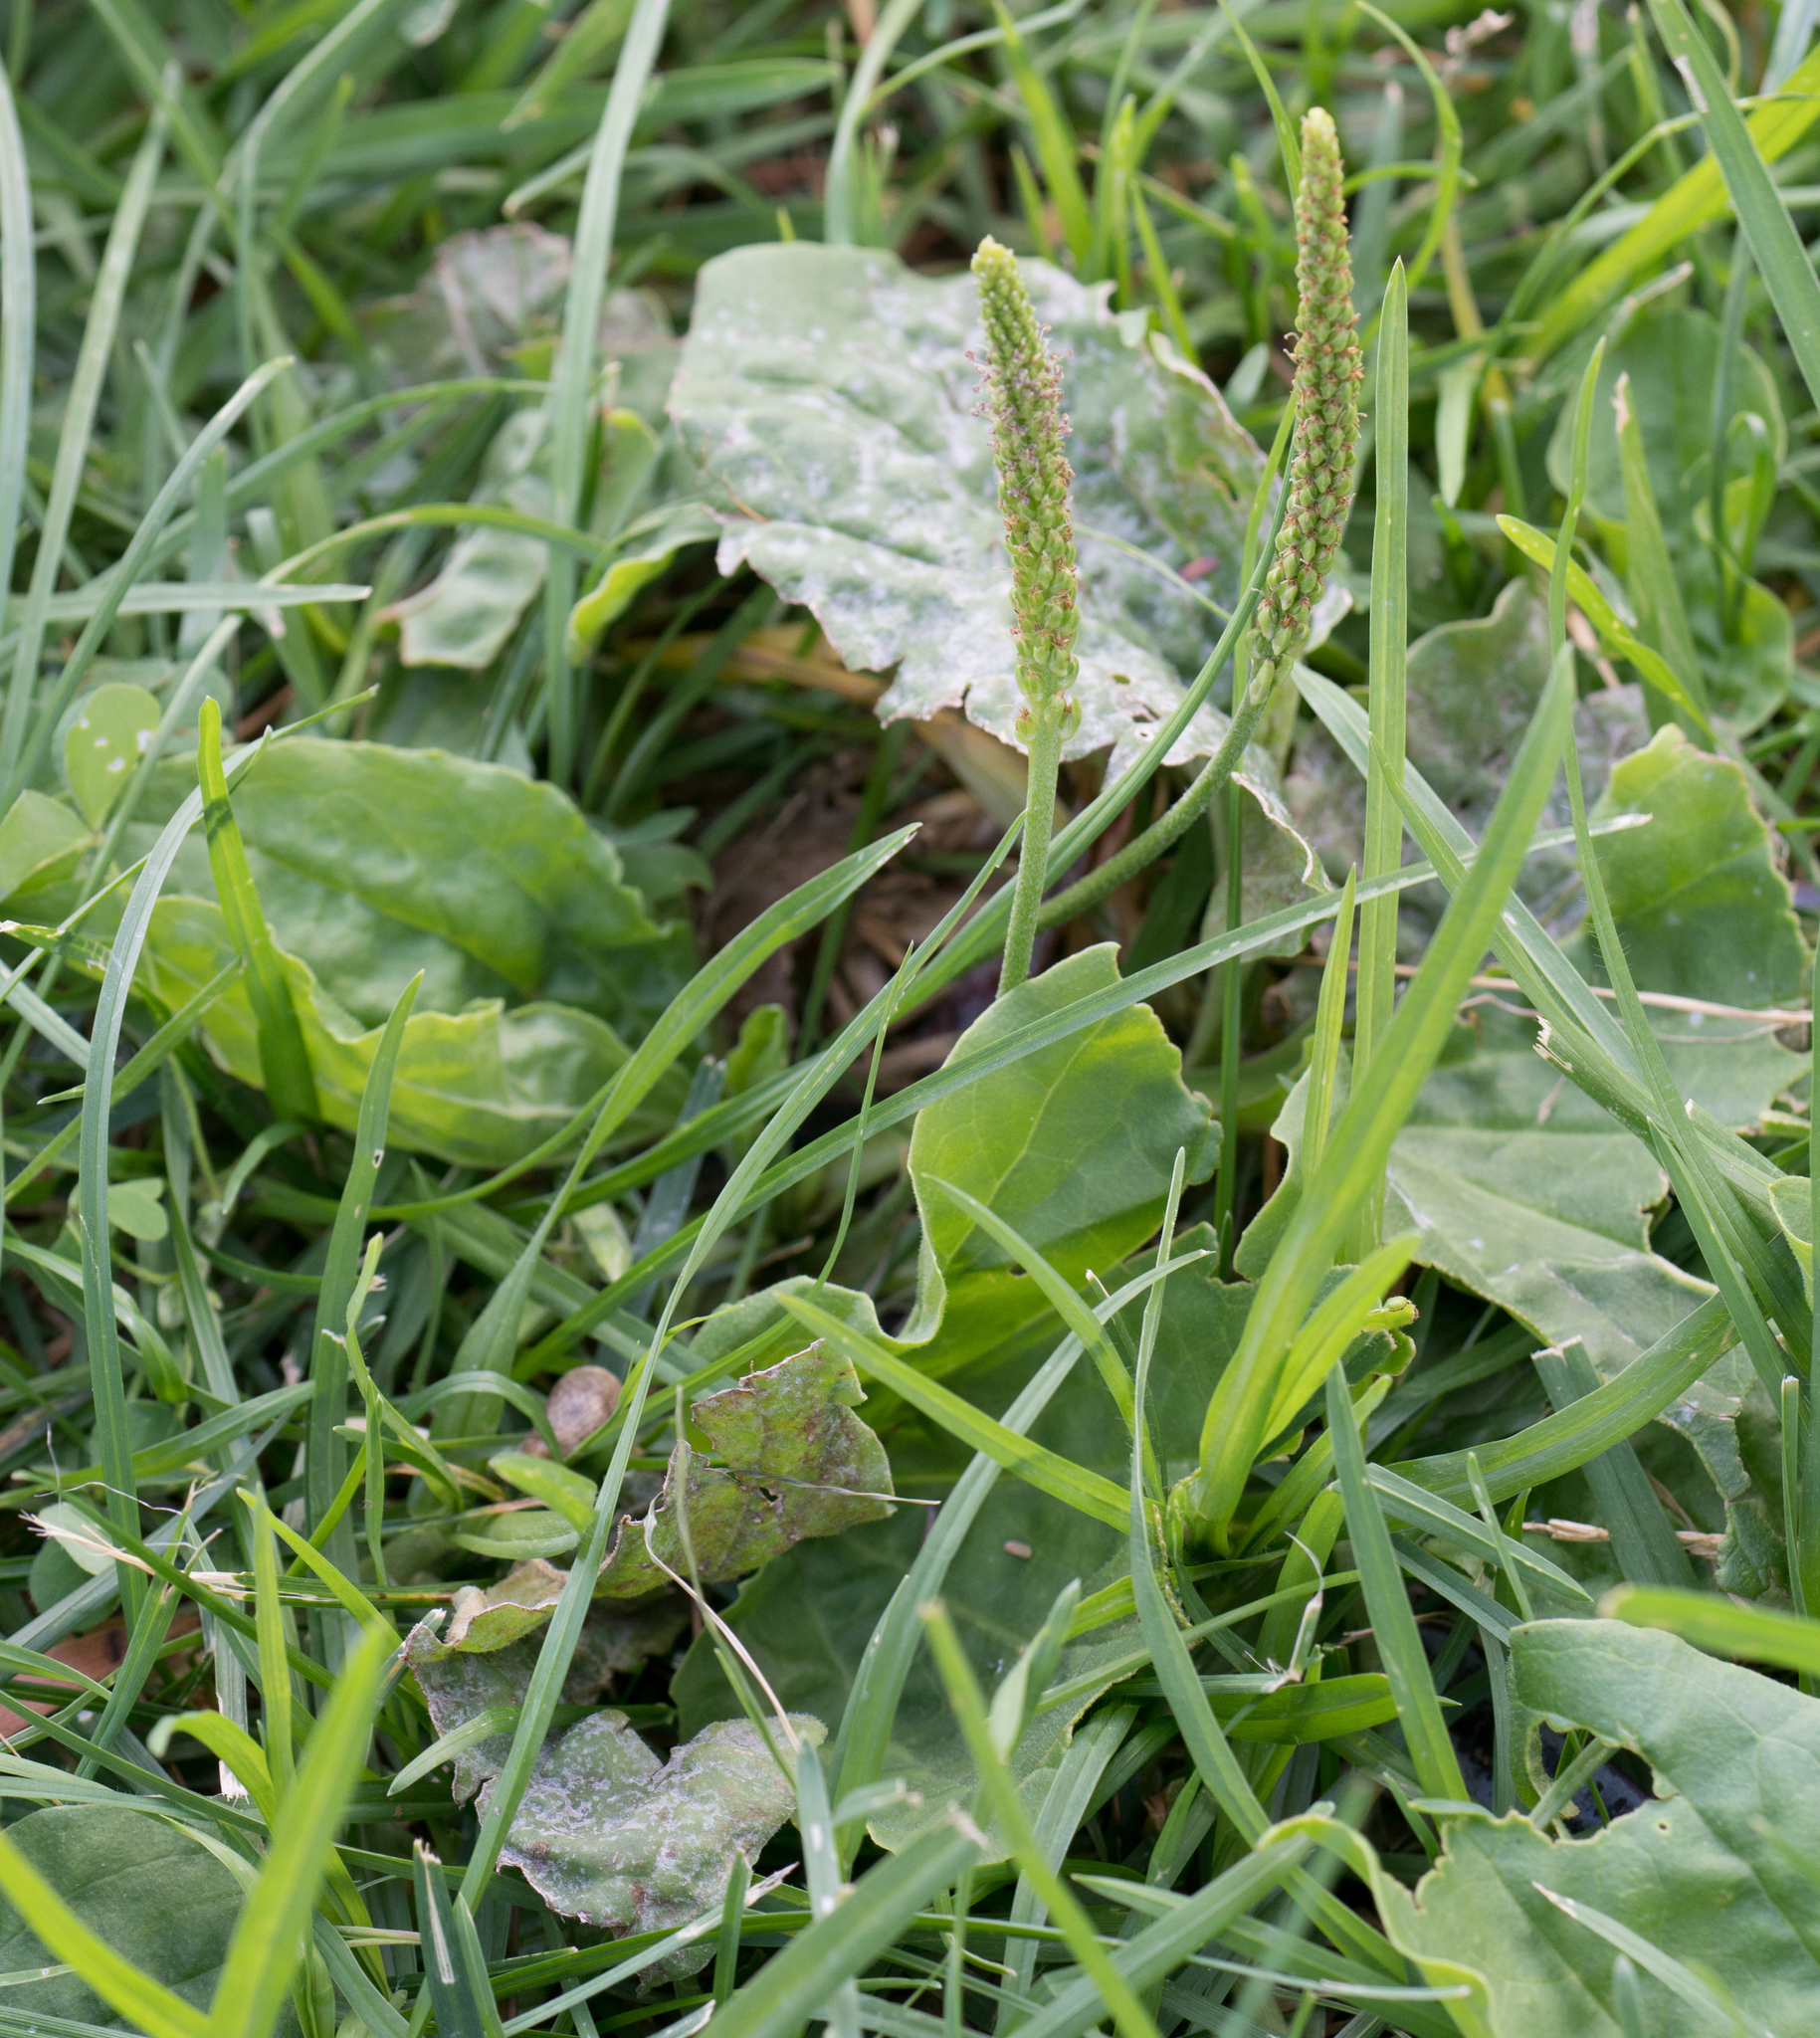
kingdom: Plantae
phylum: Tracheophyta
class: Magnoliopsida
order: Lamiales
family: Plantaginaceae
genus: Plantago
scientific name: Plantago major
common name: Common plantain
